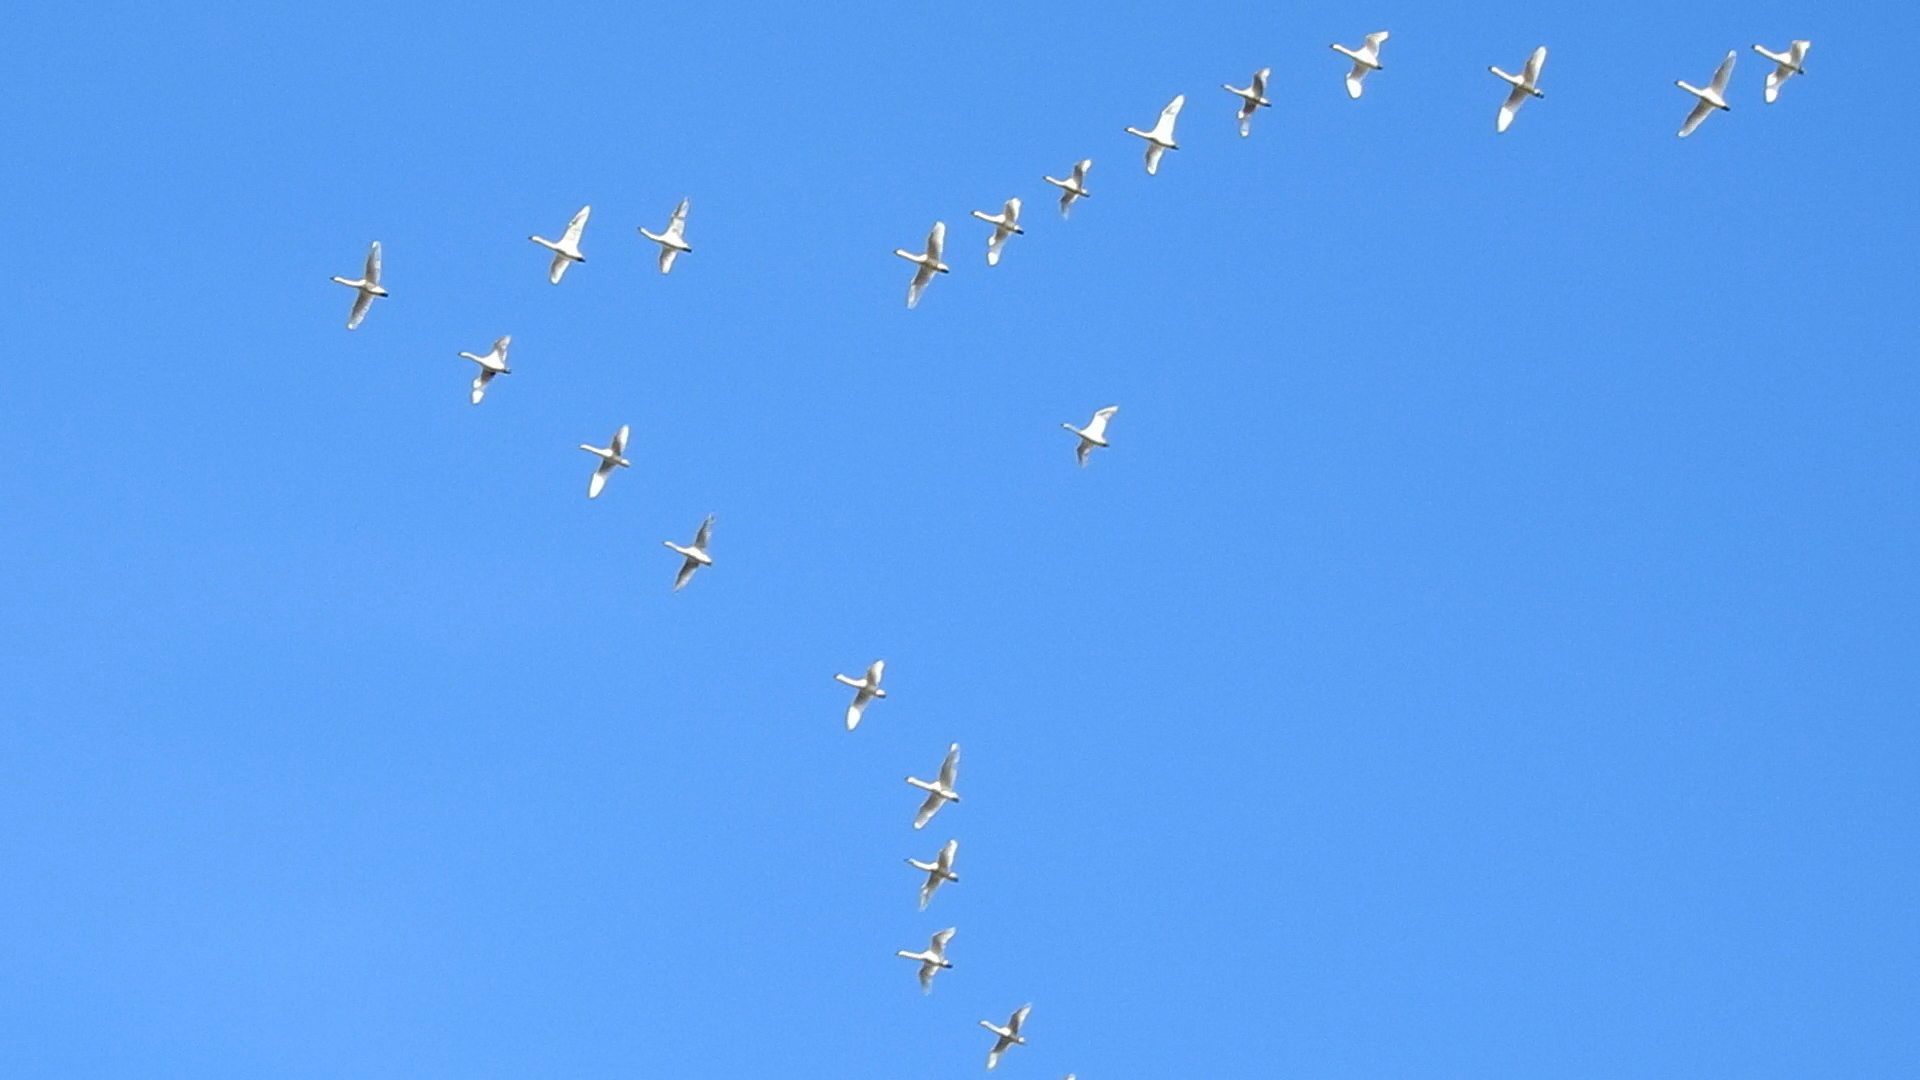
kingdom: Animalia
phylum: Chordata
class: Aves
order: Anseriformes
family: Anatidae
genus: Cygnus
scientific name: Cygnus columbianus
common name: Tundra swan
